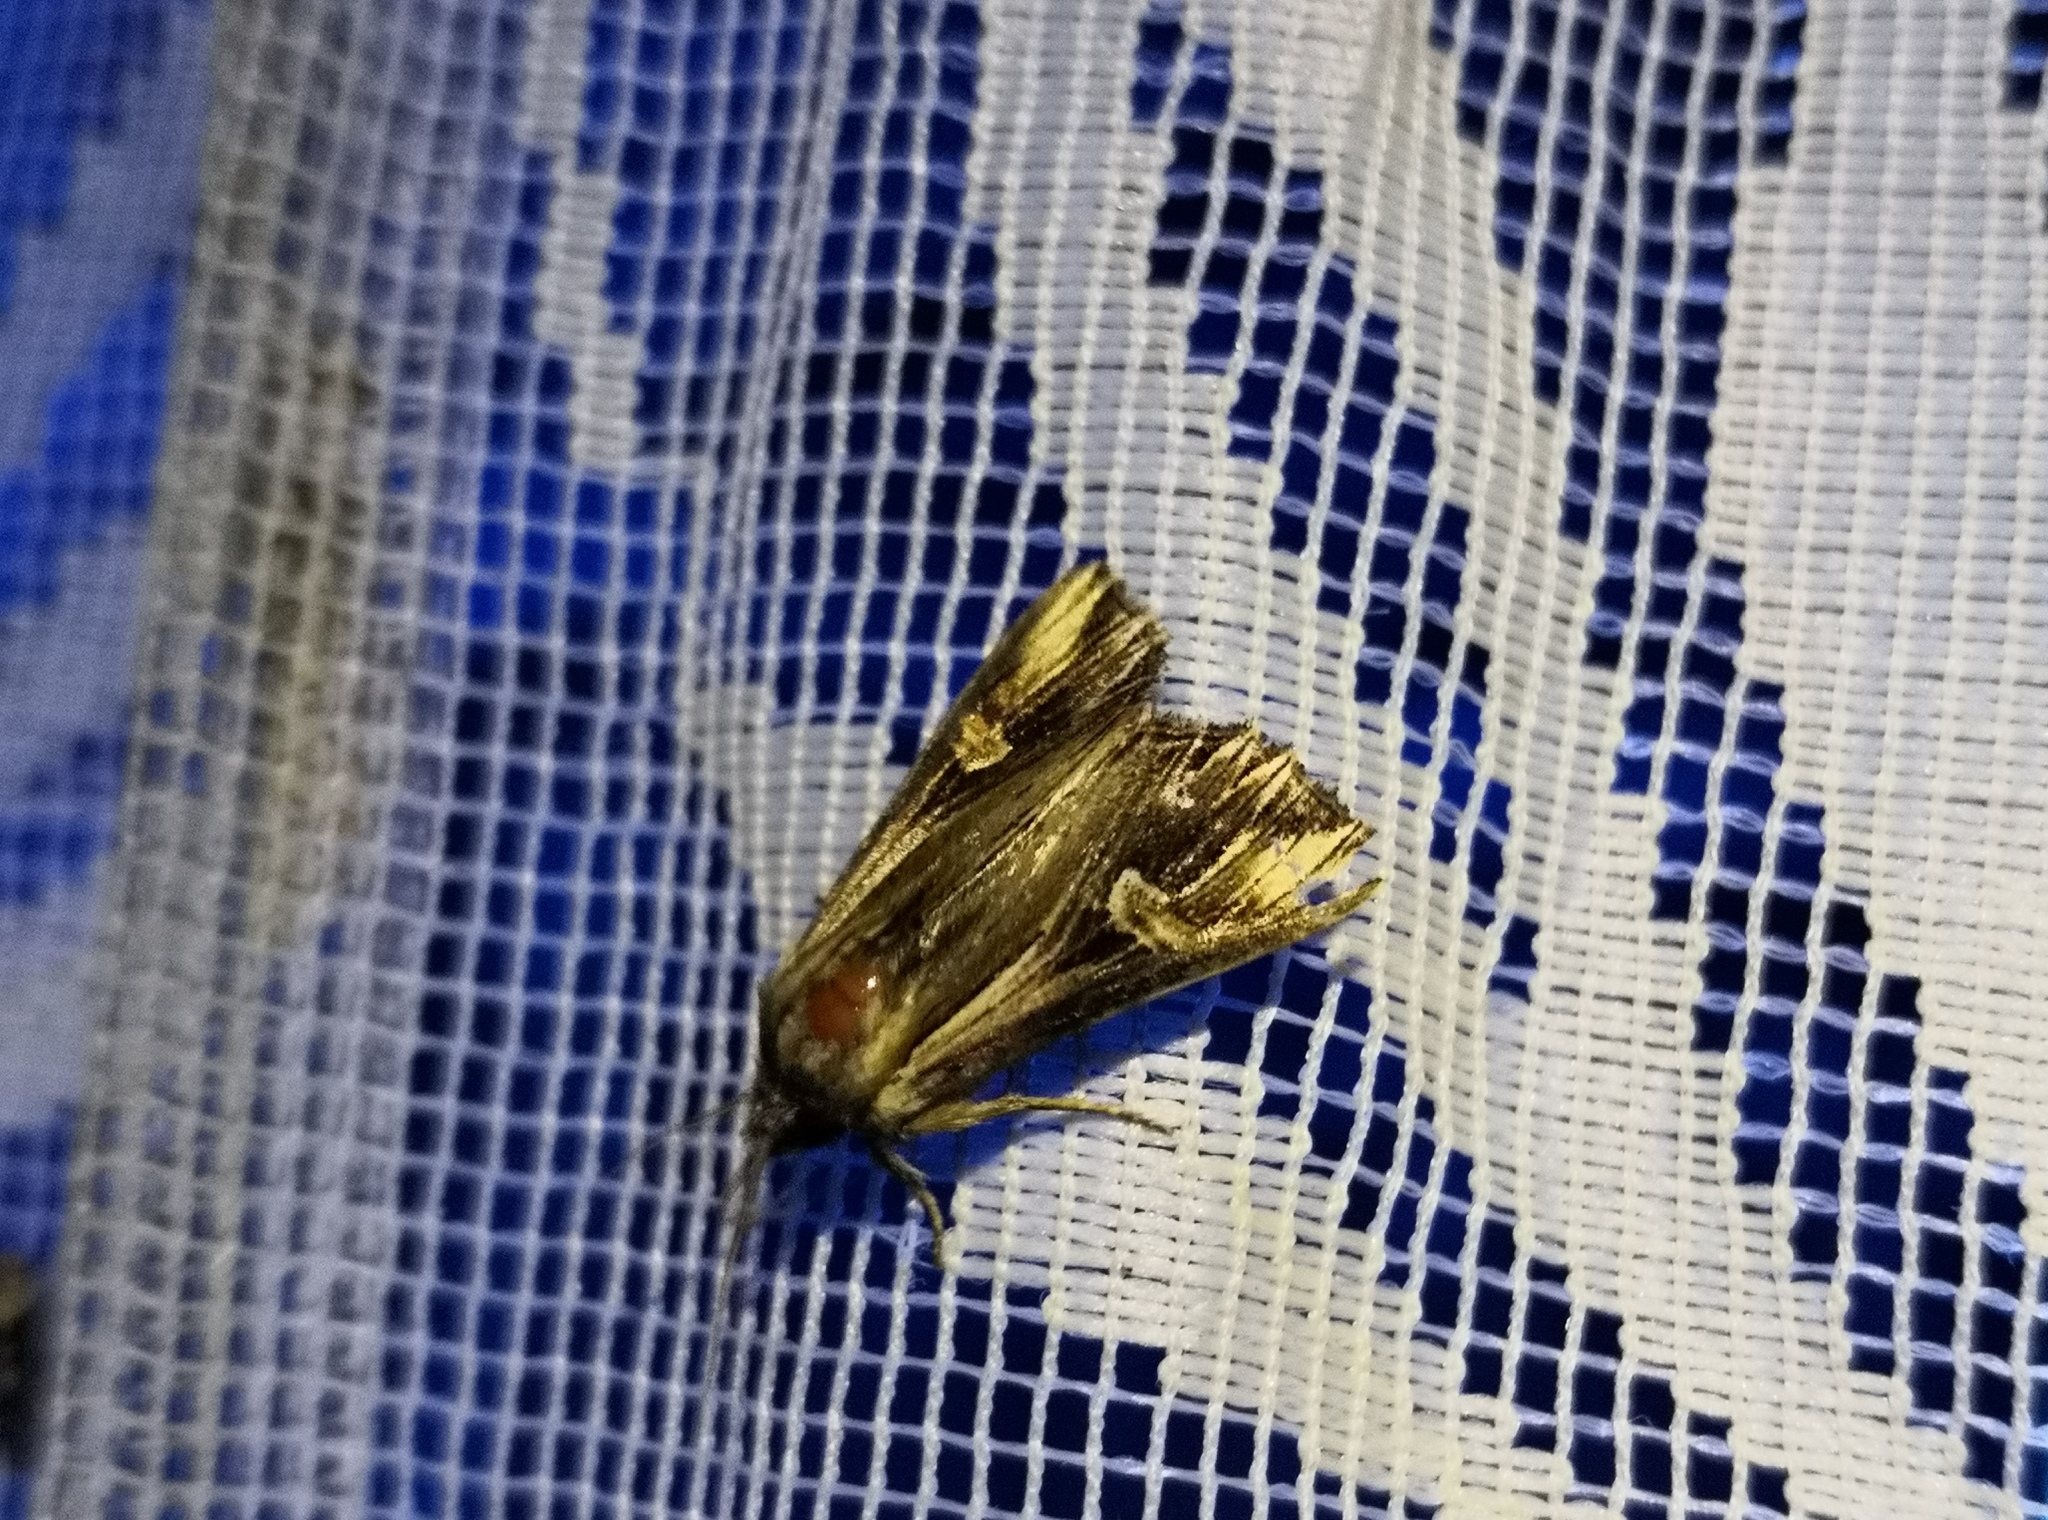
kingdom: Animalia
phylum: Arthropoda
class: Insecta
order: Lepidoptera
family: Noctuidae
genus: Actinotia
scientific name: Actinotia polyodon
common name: Purple cloud
